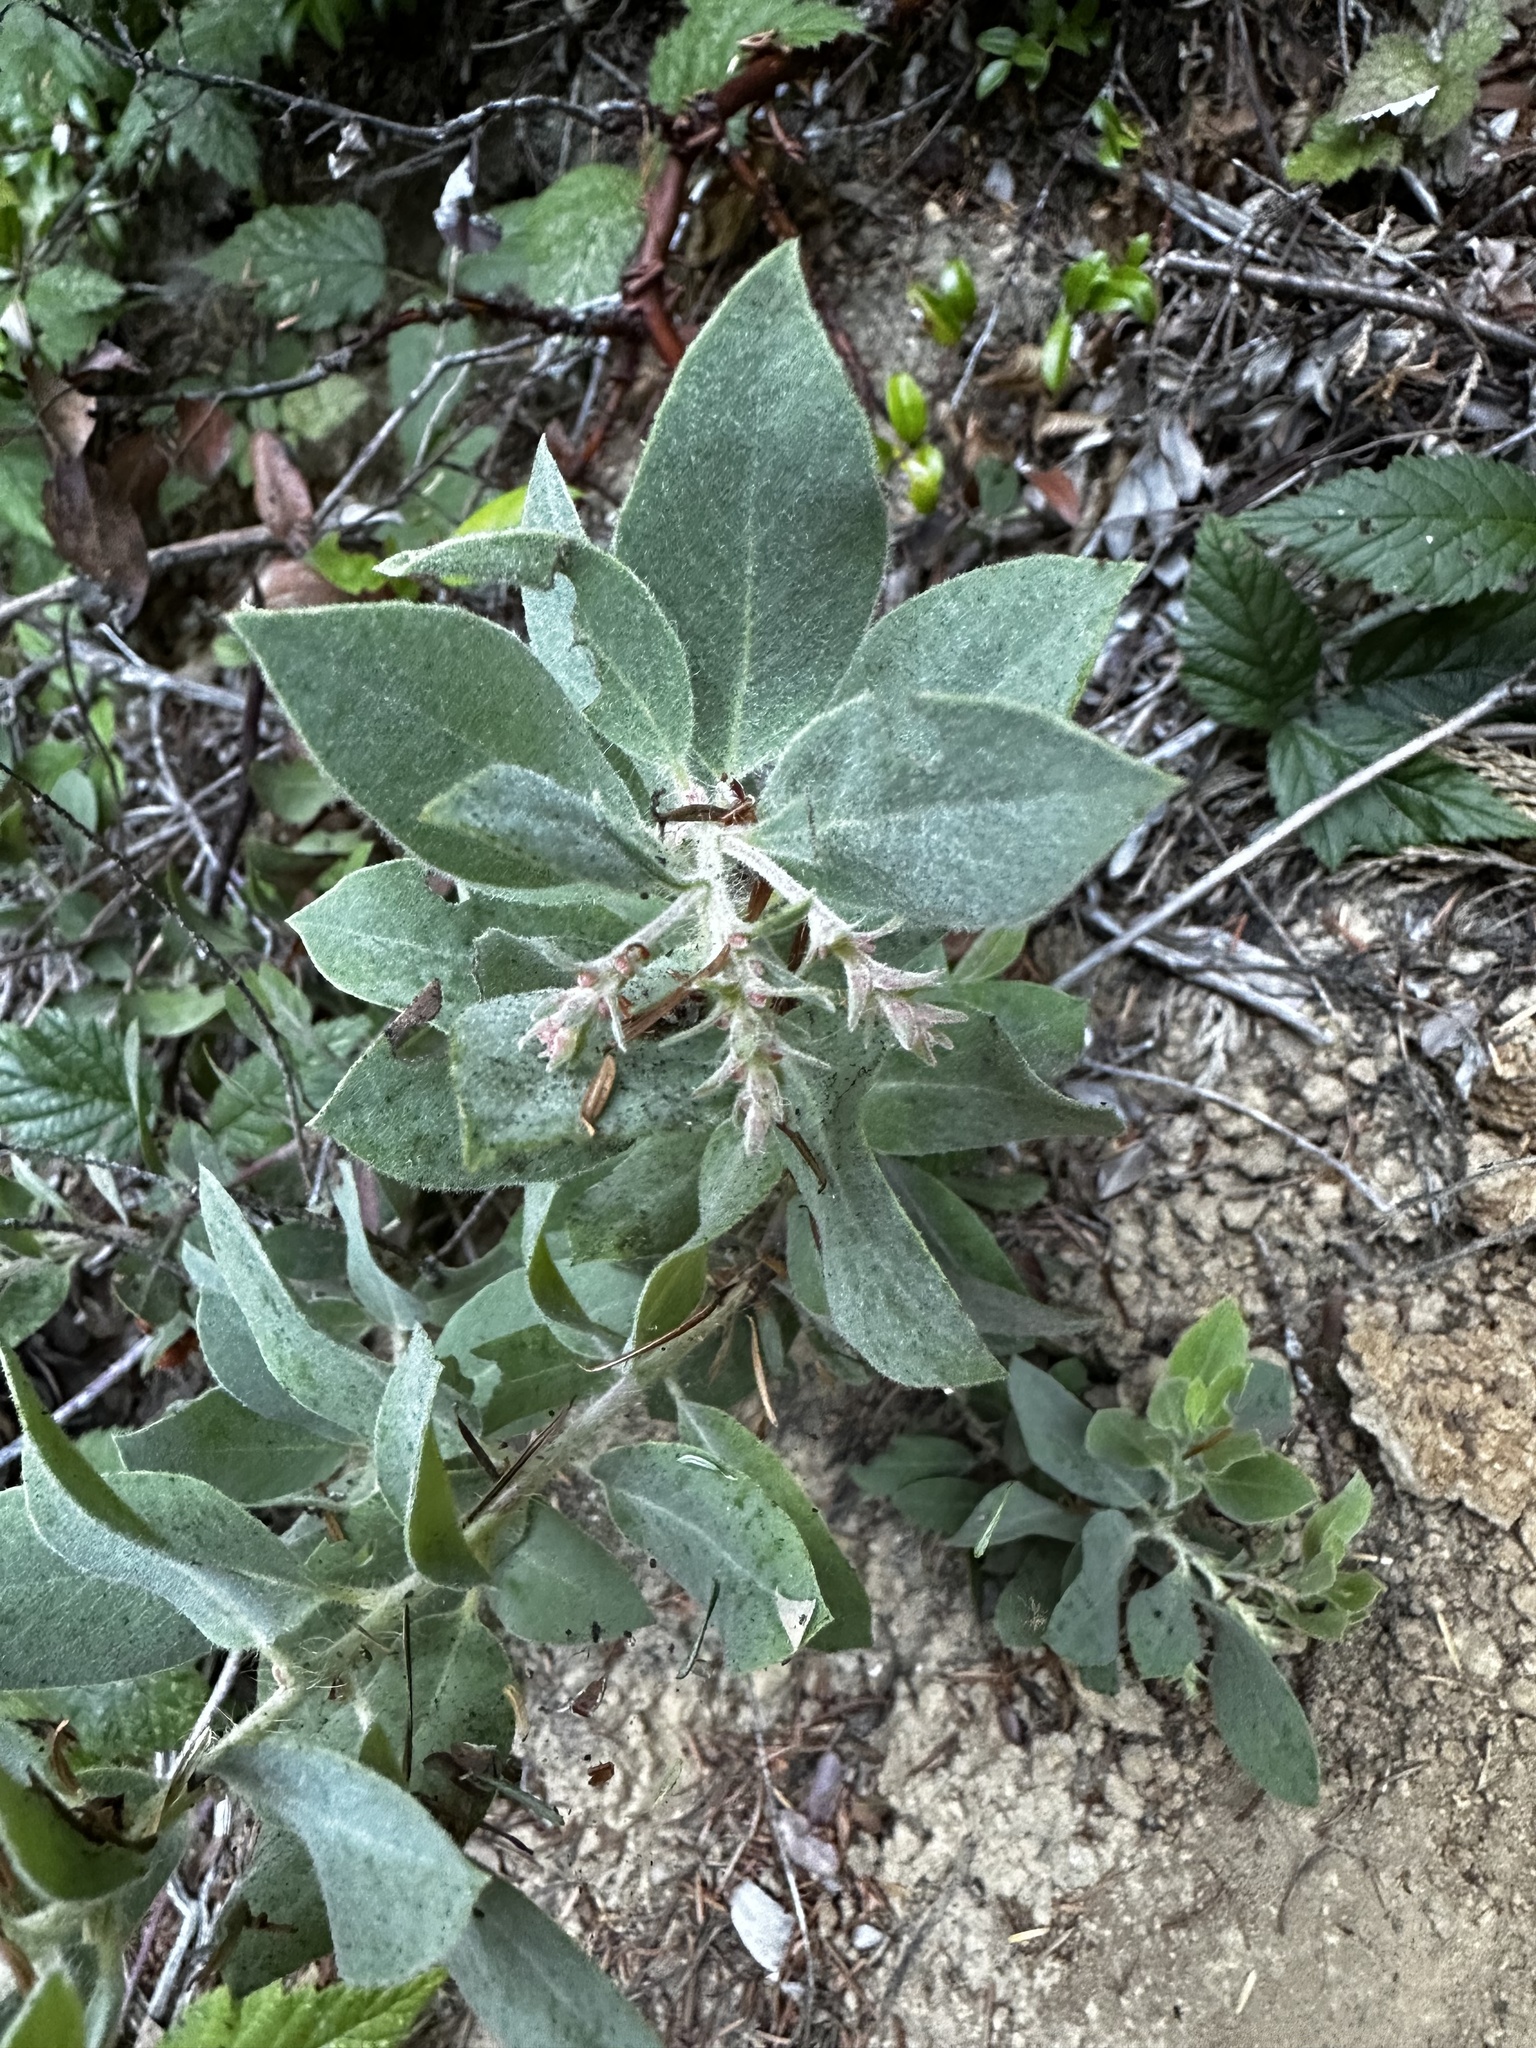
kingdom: Plantae
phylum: Tracheophyta
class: Magnoliopsida
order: Ericales
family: Ericaceae
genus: Arctostaphylos
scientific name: Arctostaphylos columbiana
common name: Bristly bearberry
